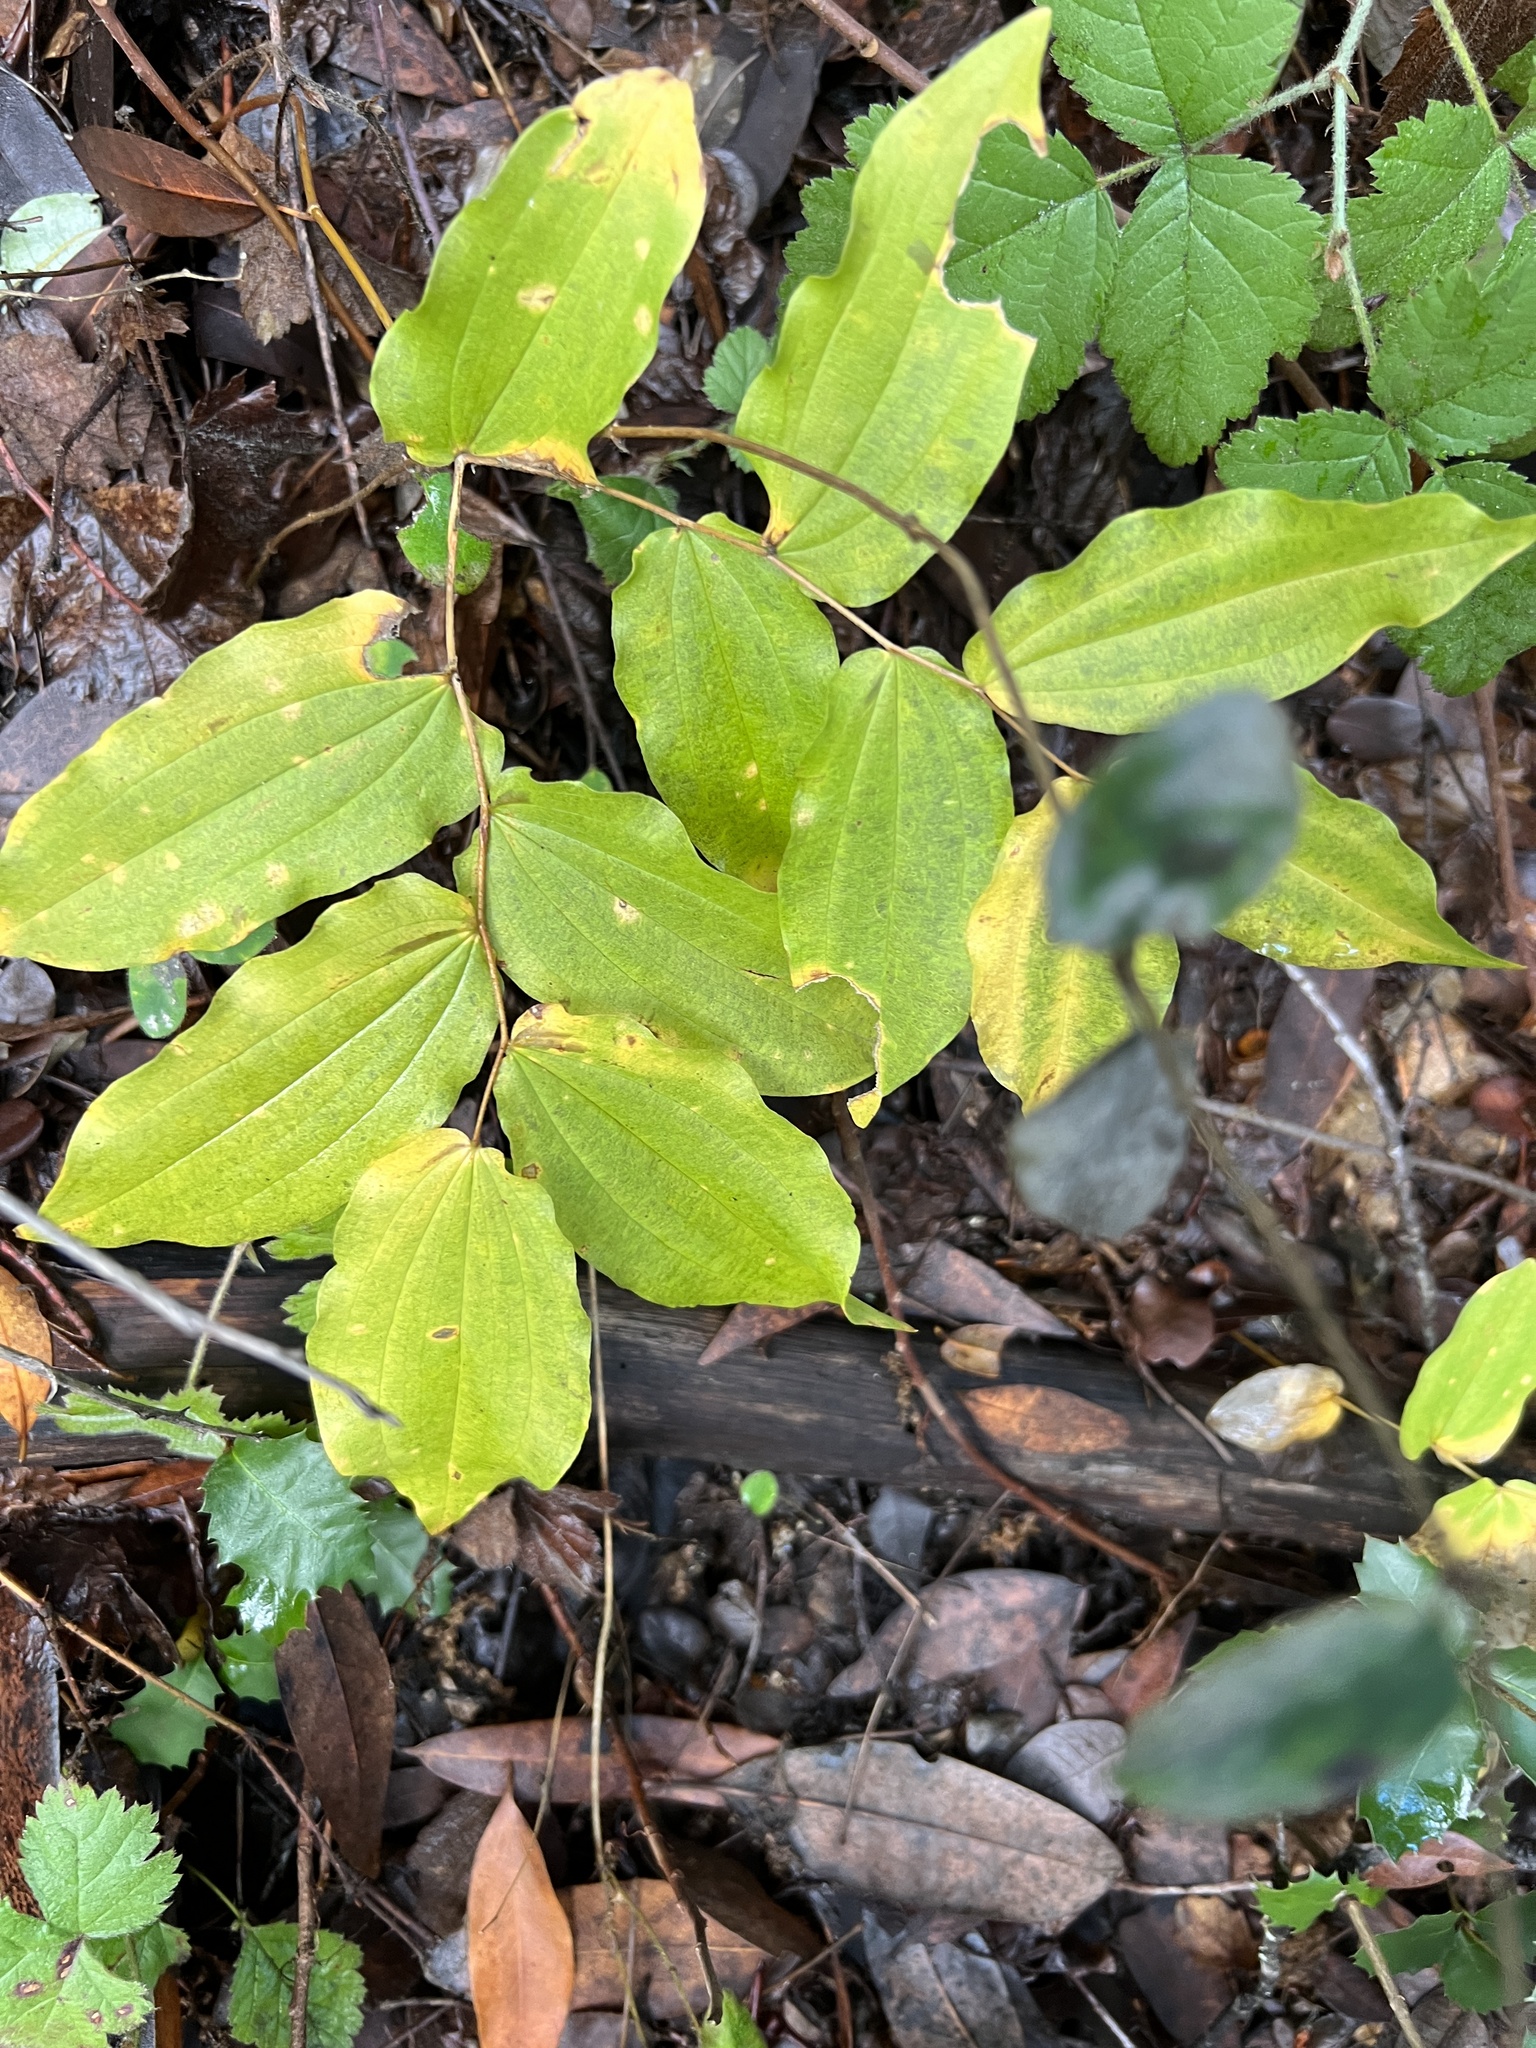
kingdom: Plantae
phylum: Tracheophyta
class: Liliopsida
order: Liliales
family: Liliaceae
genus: Prosartes
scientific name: Prosartes hookeri
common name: Fairy-bells
